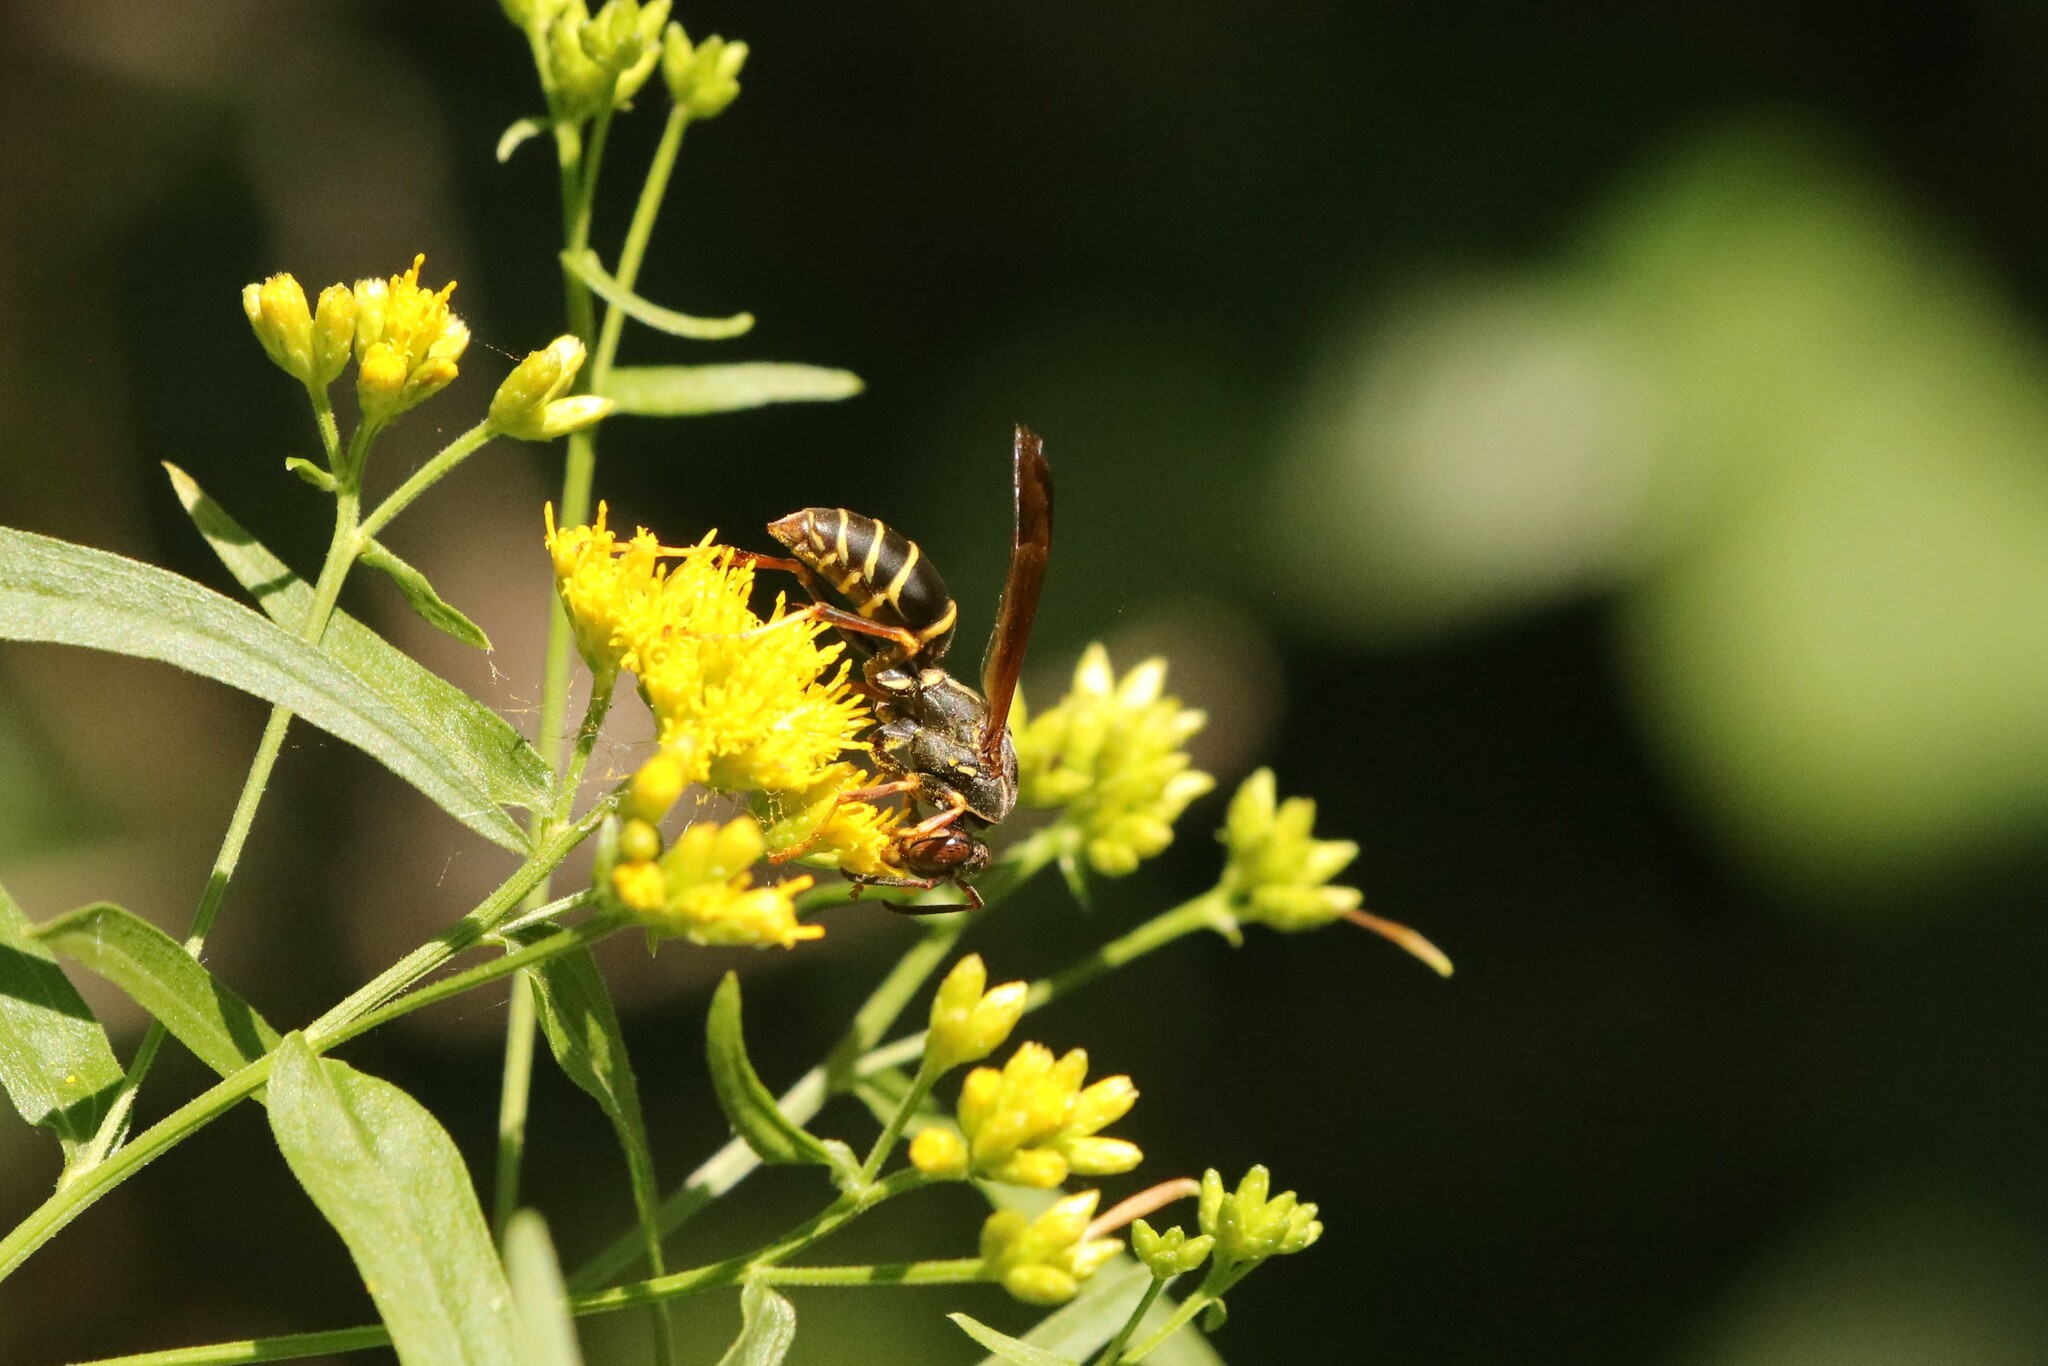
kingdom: Animalia
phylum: Arthropoda
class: Insecta
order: Hymenoptera
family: Eumenidae
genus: Polistes
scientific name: Polistes fuscatus
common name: Dark paper wasp
